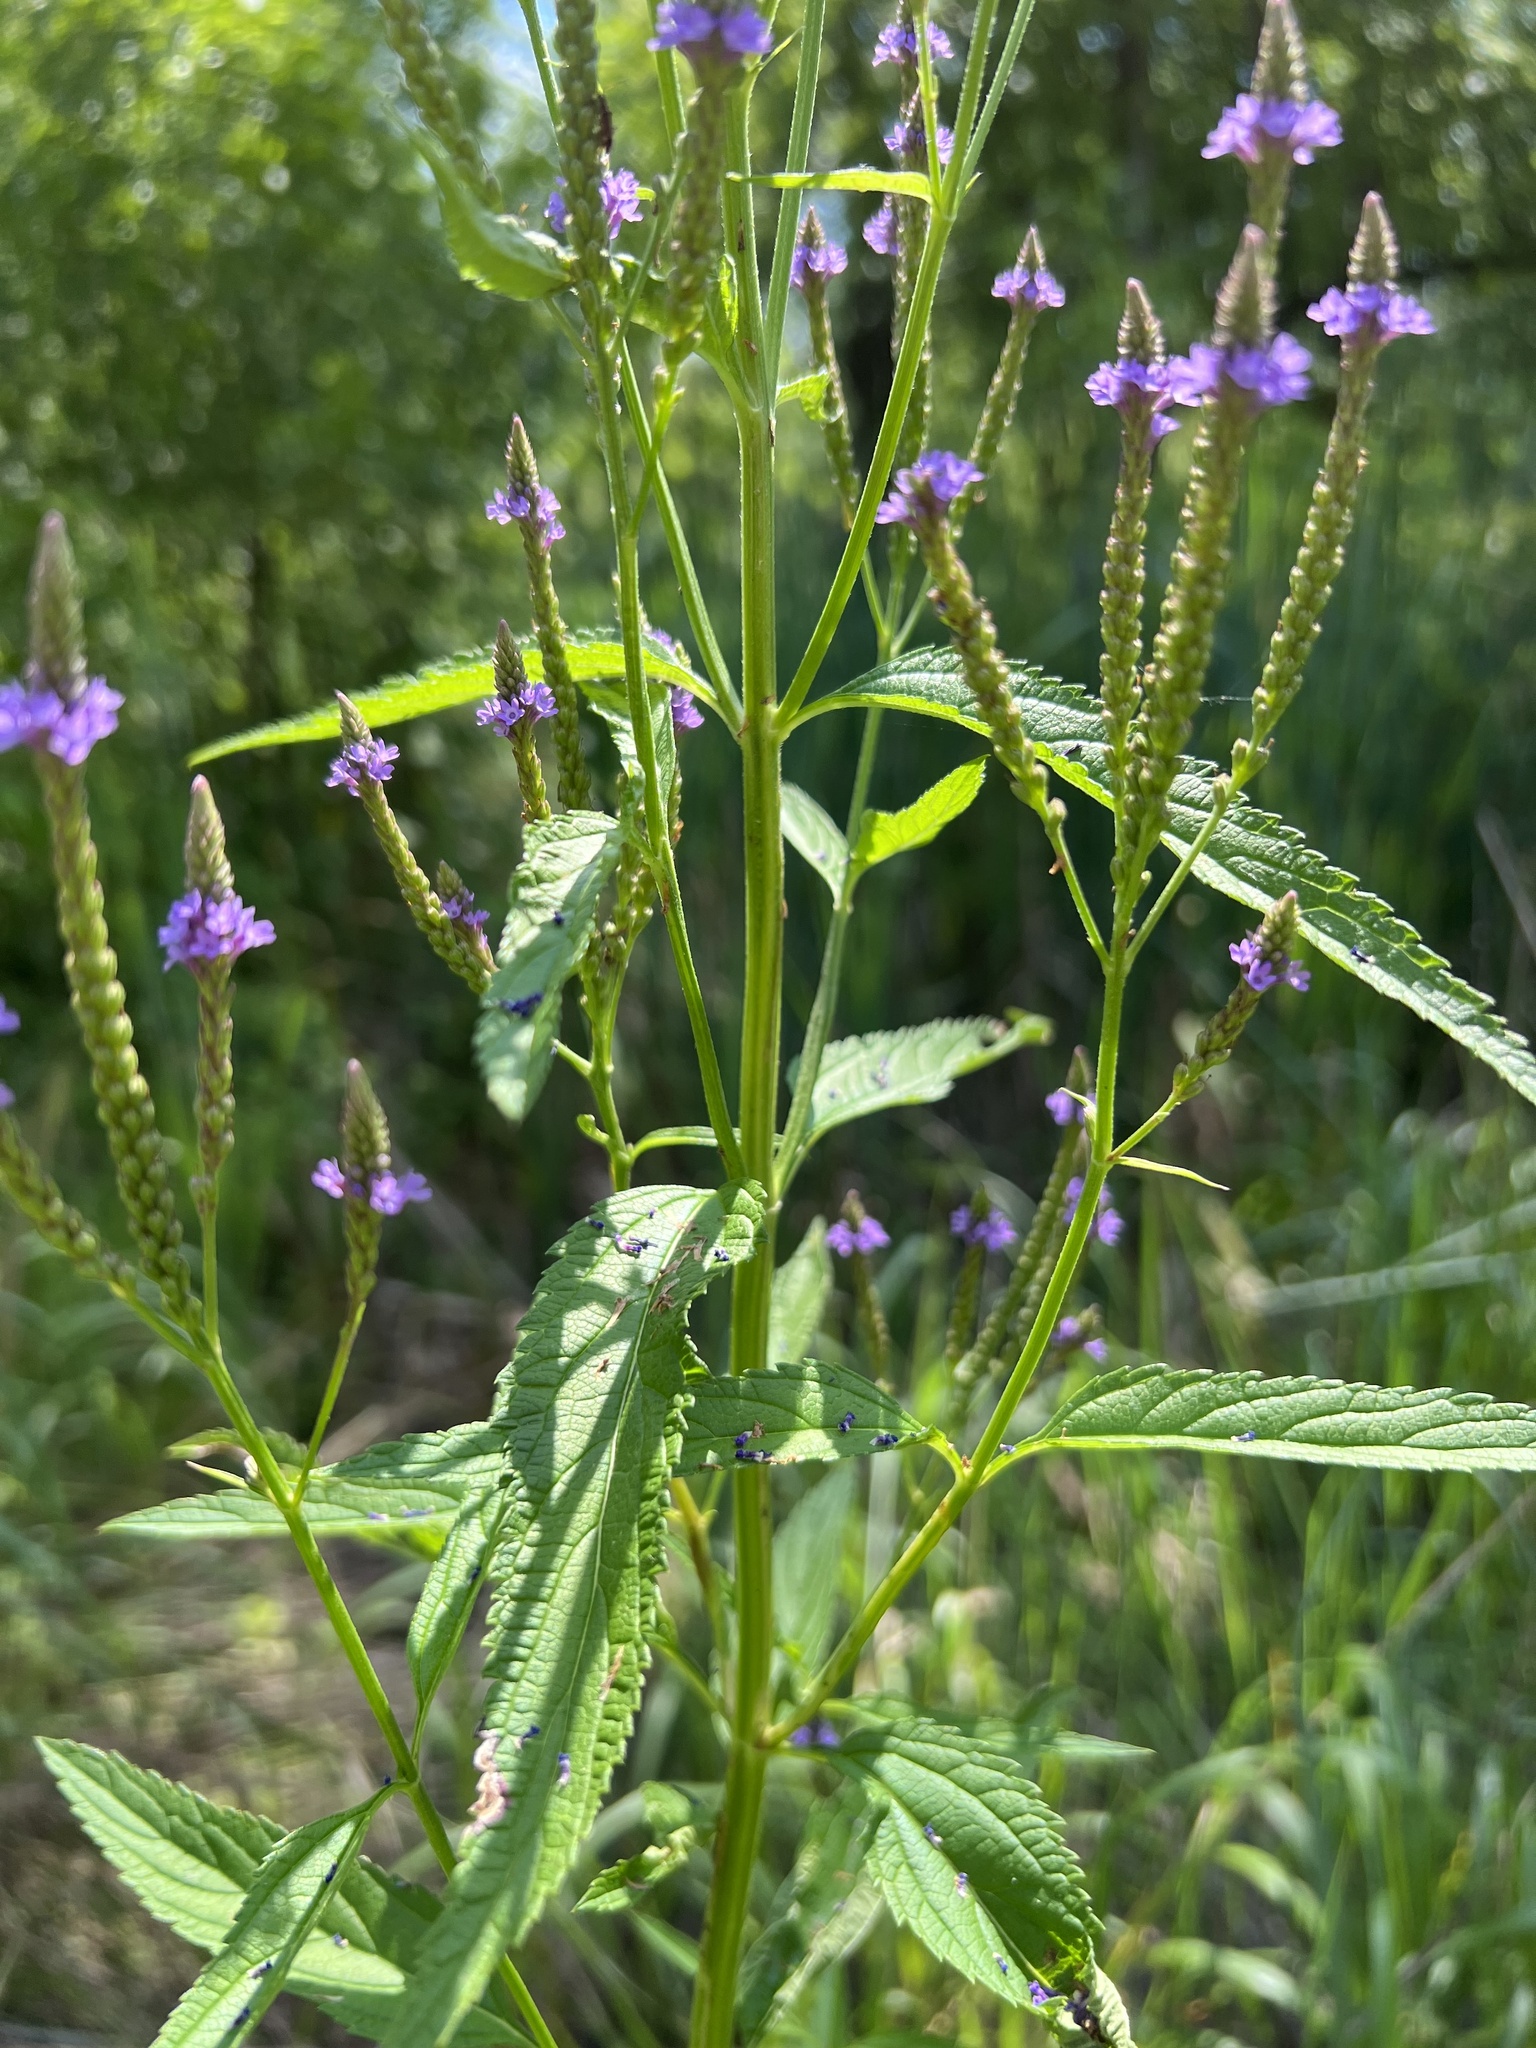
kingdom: Plantae
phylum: Tracheophyta
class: Magnoliopsida
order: Lamiales
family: Verbenaceae
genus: Verbena
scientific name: Verbena hastata
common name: American blue vervain
